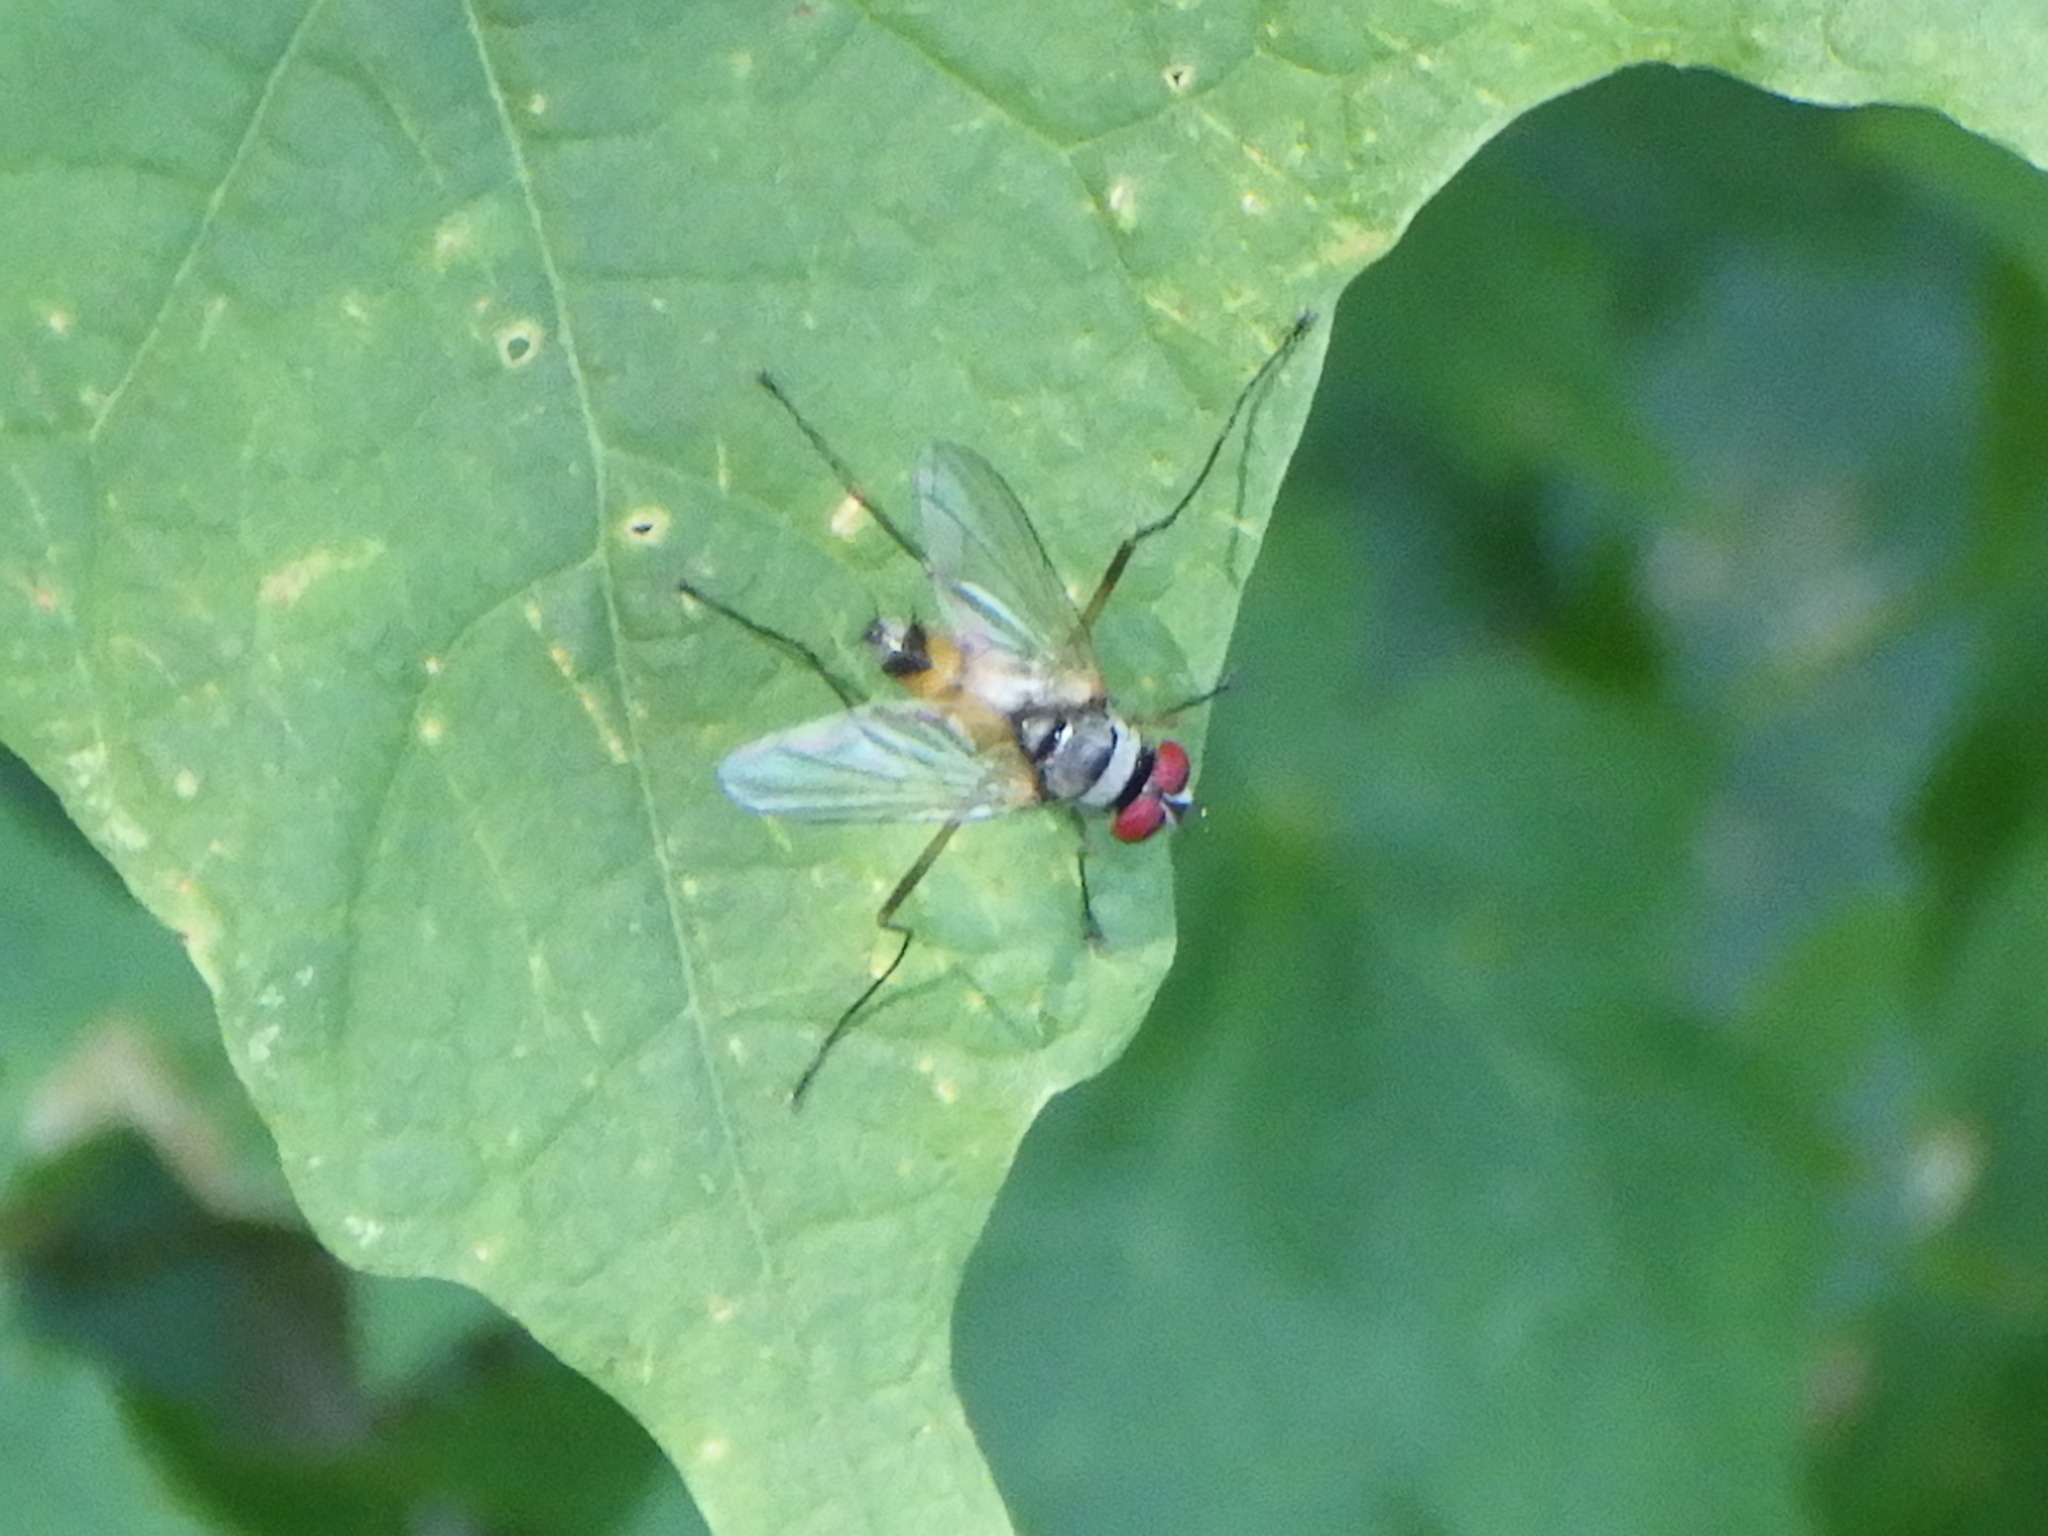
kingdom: Animalia
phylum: Arthropoda
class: Insecta
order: Diptera
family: Tachinidae
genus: Cholomyia
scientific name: Cholomyia inaequipes
